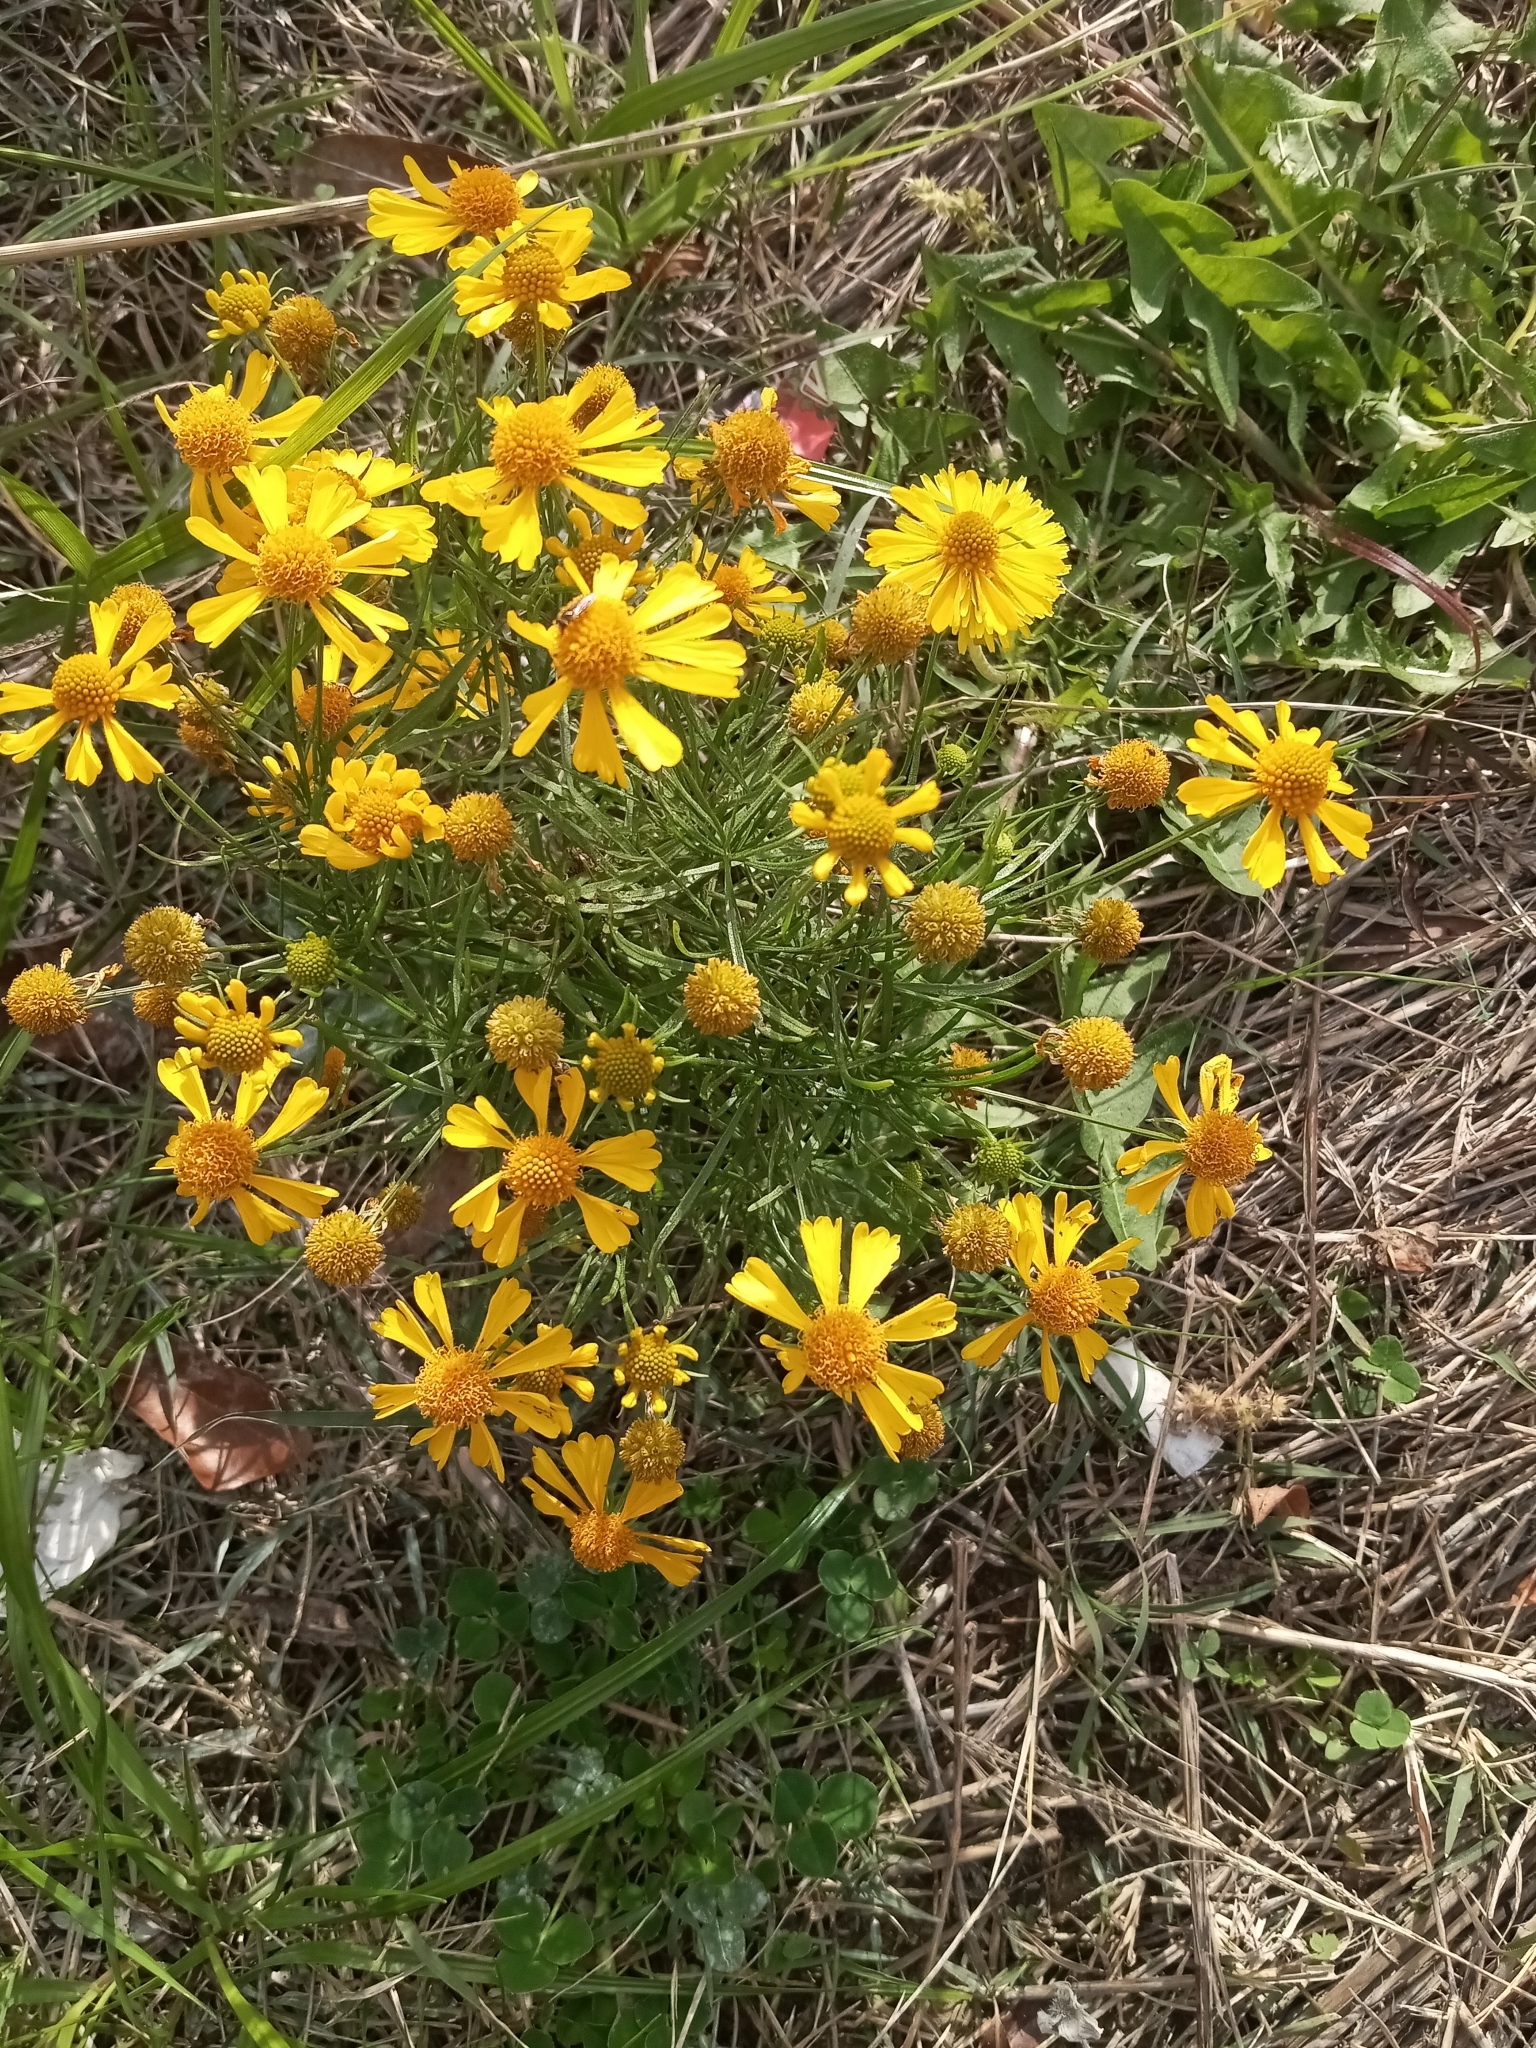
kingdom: Plantae
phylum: Tracheophyta
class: Magnoliopsida
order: Asterales
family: Asteraceae
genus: Helenium
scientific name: Helenium amarum
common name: Bitter sneezeweed
